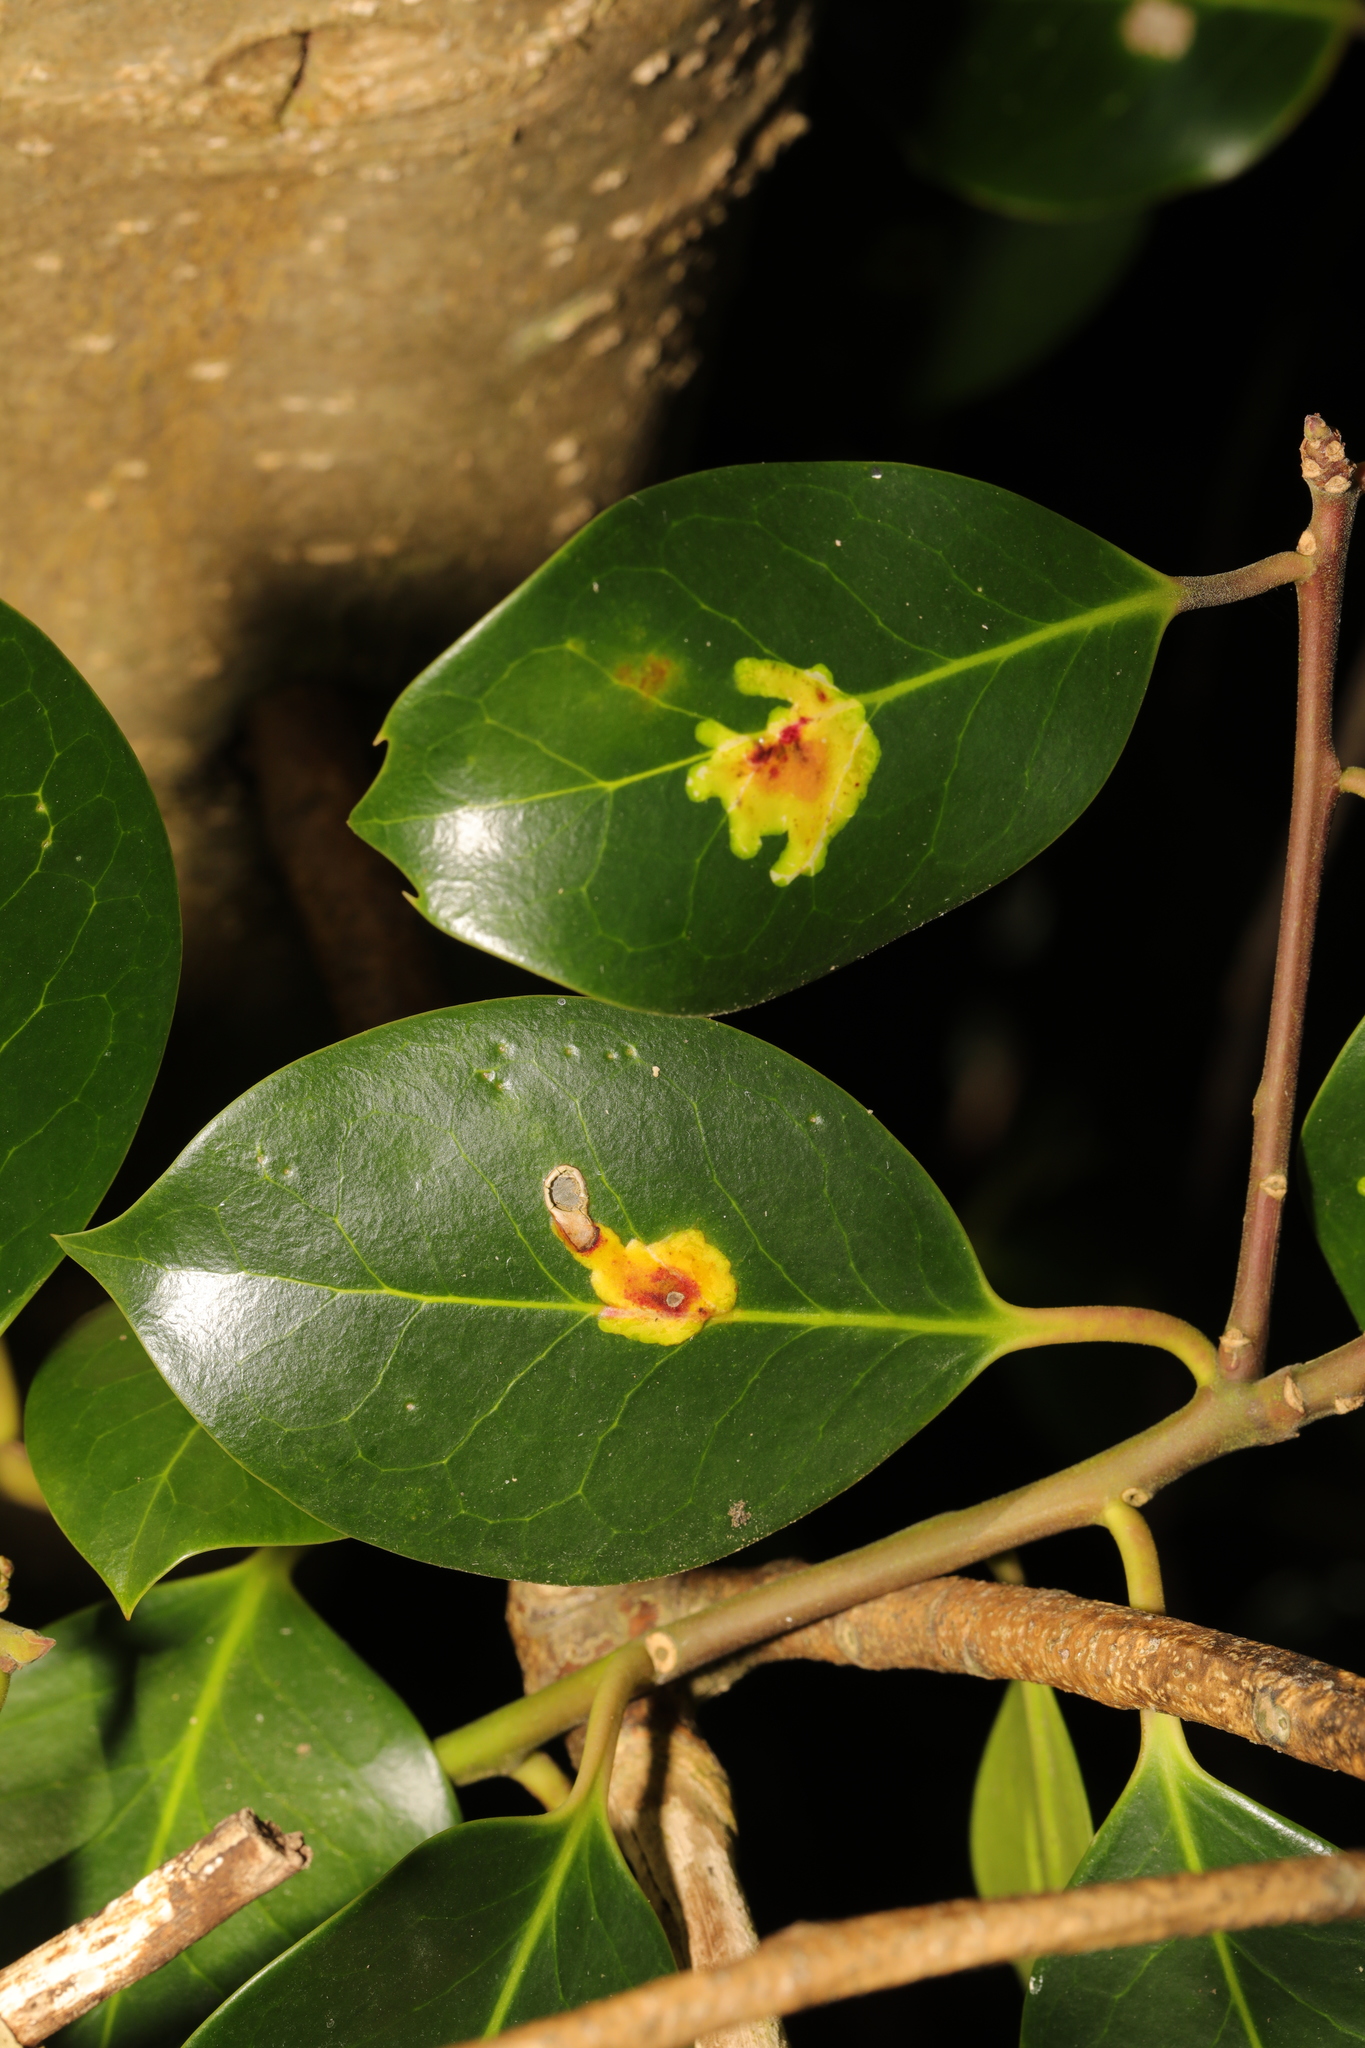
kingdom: Plantae
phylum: Tracheophyta
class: Magnoliopsida
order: Aquifoliales
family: Aquifoliaceae
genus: Ilex
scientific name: Ilex aquifolium
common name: English holly
